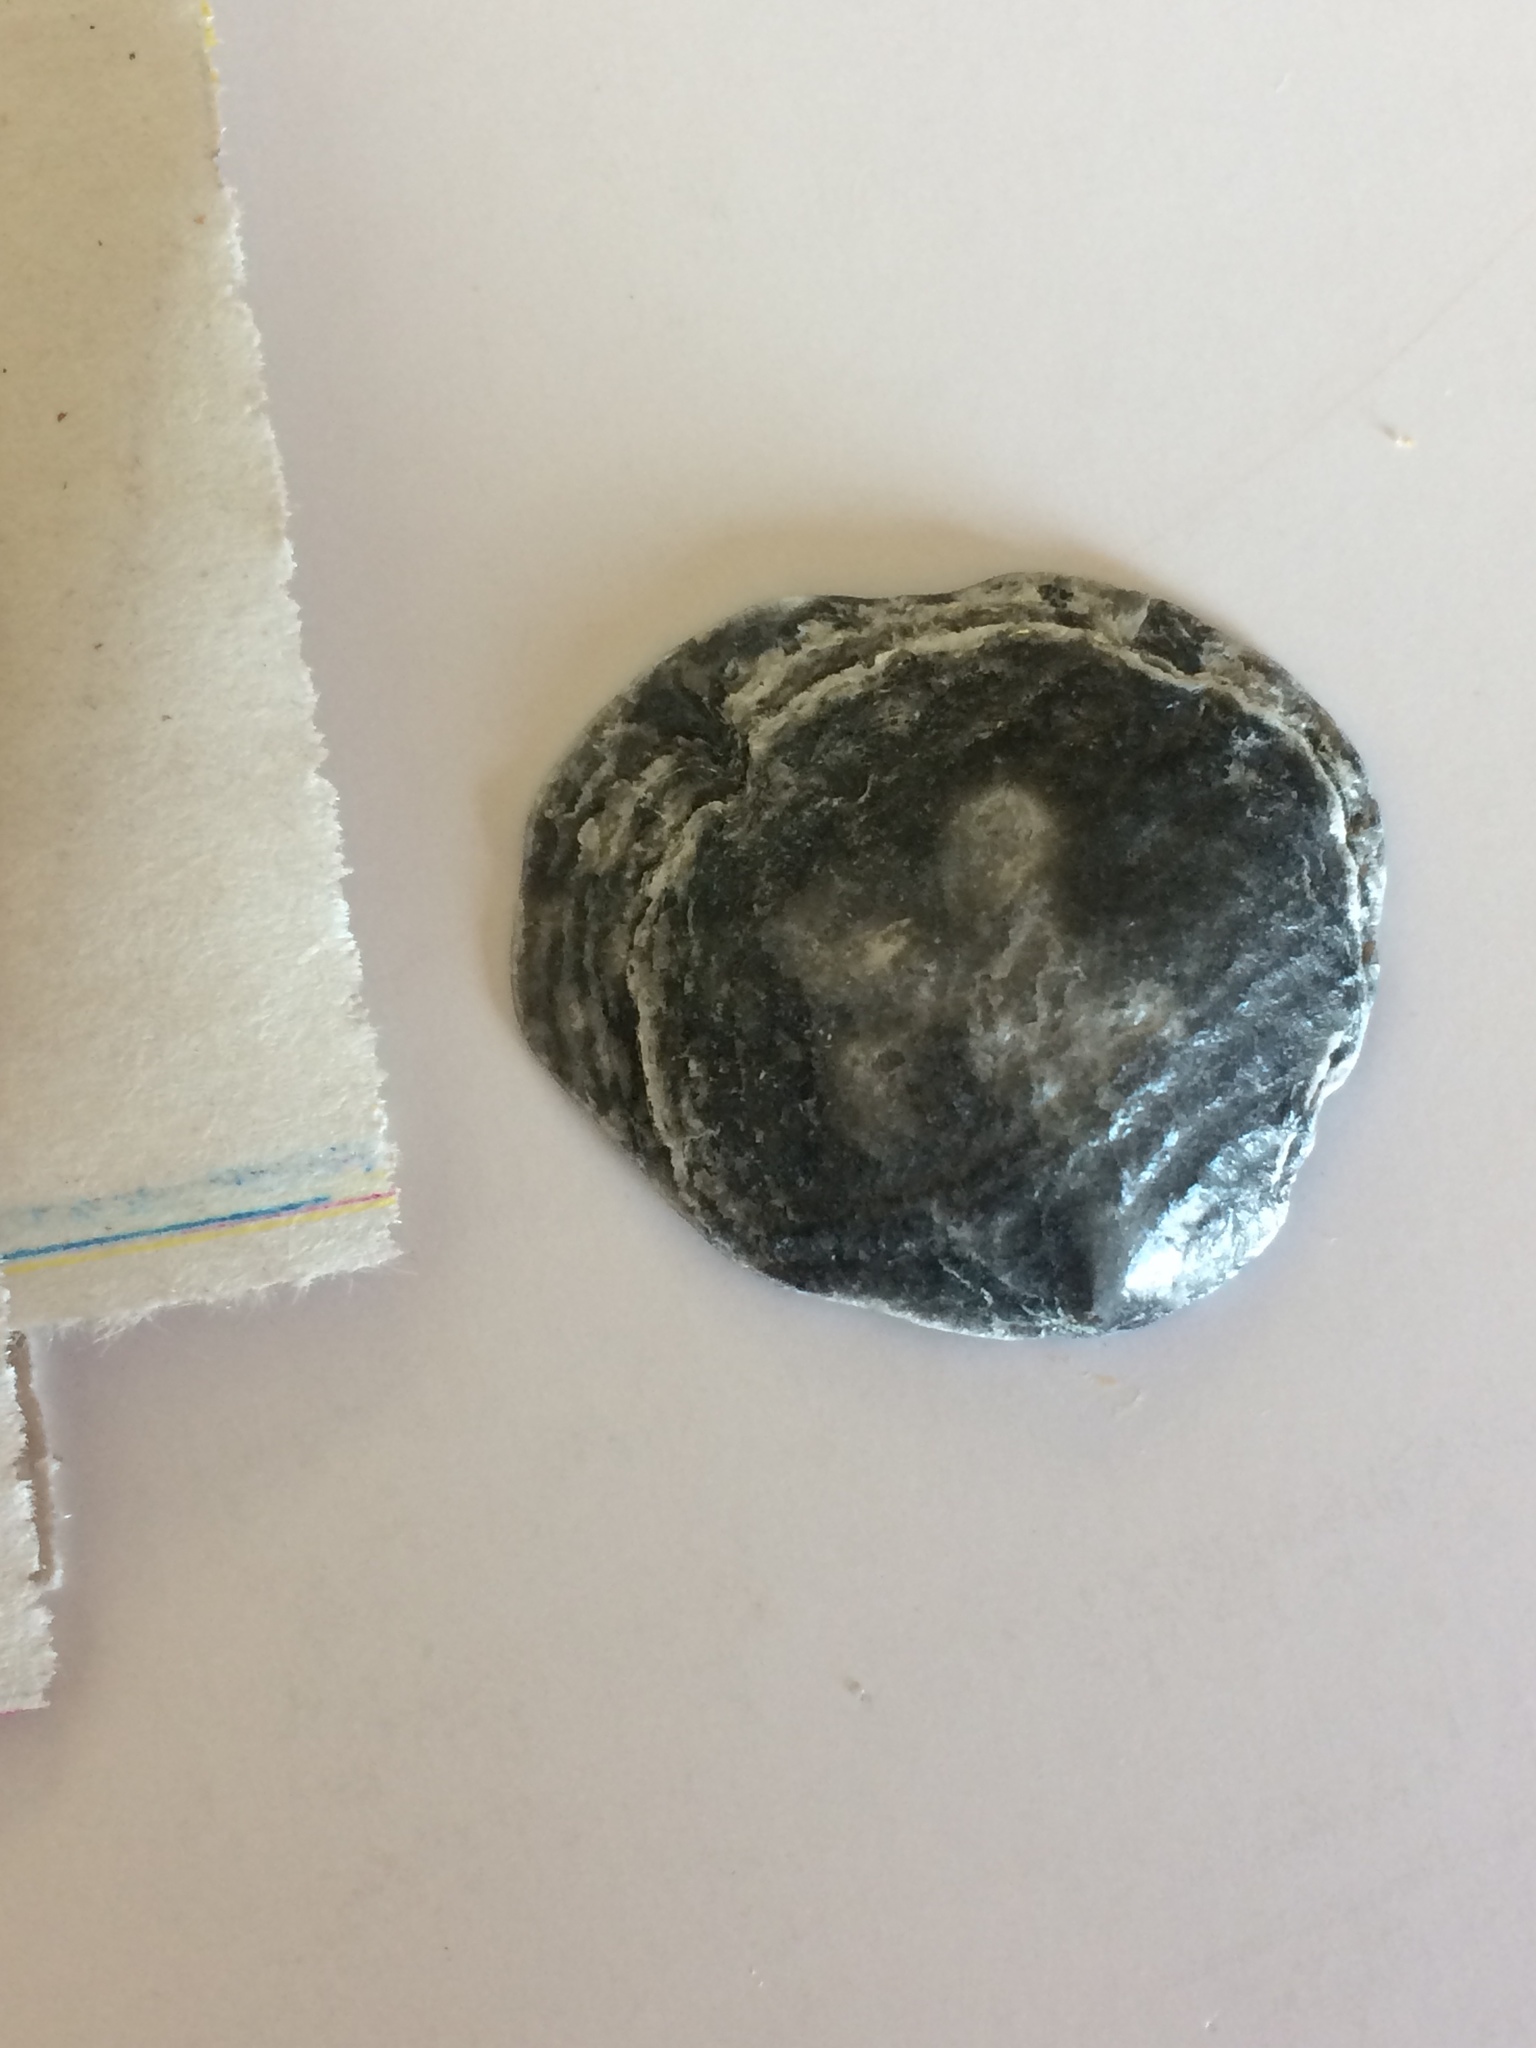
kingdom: Animalia
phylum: Mollusca
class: Bivalvia
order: Pectinida
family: Anomiidae
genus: Anomia
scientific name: Anomia simplex
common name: Common jingle shell
